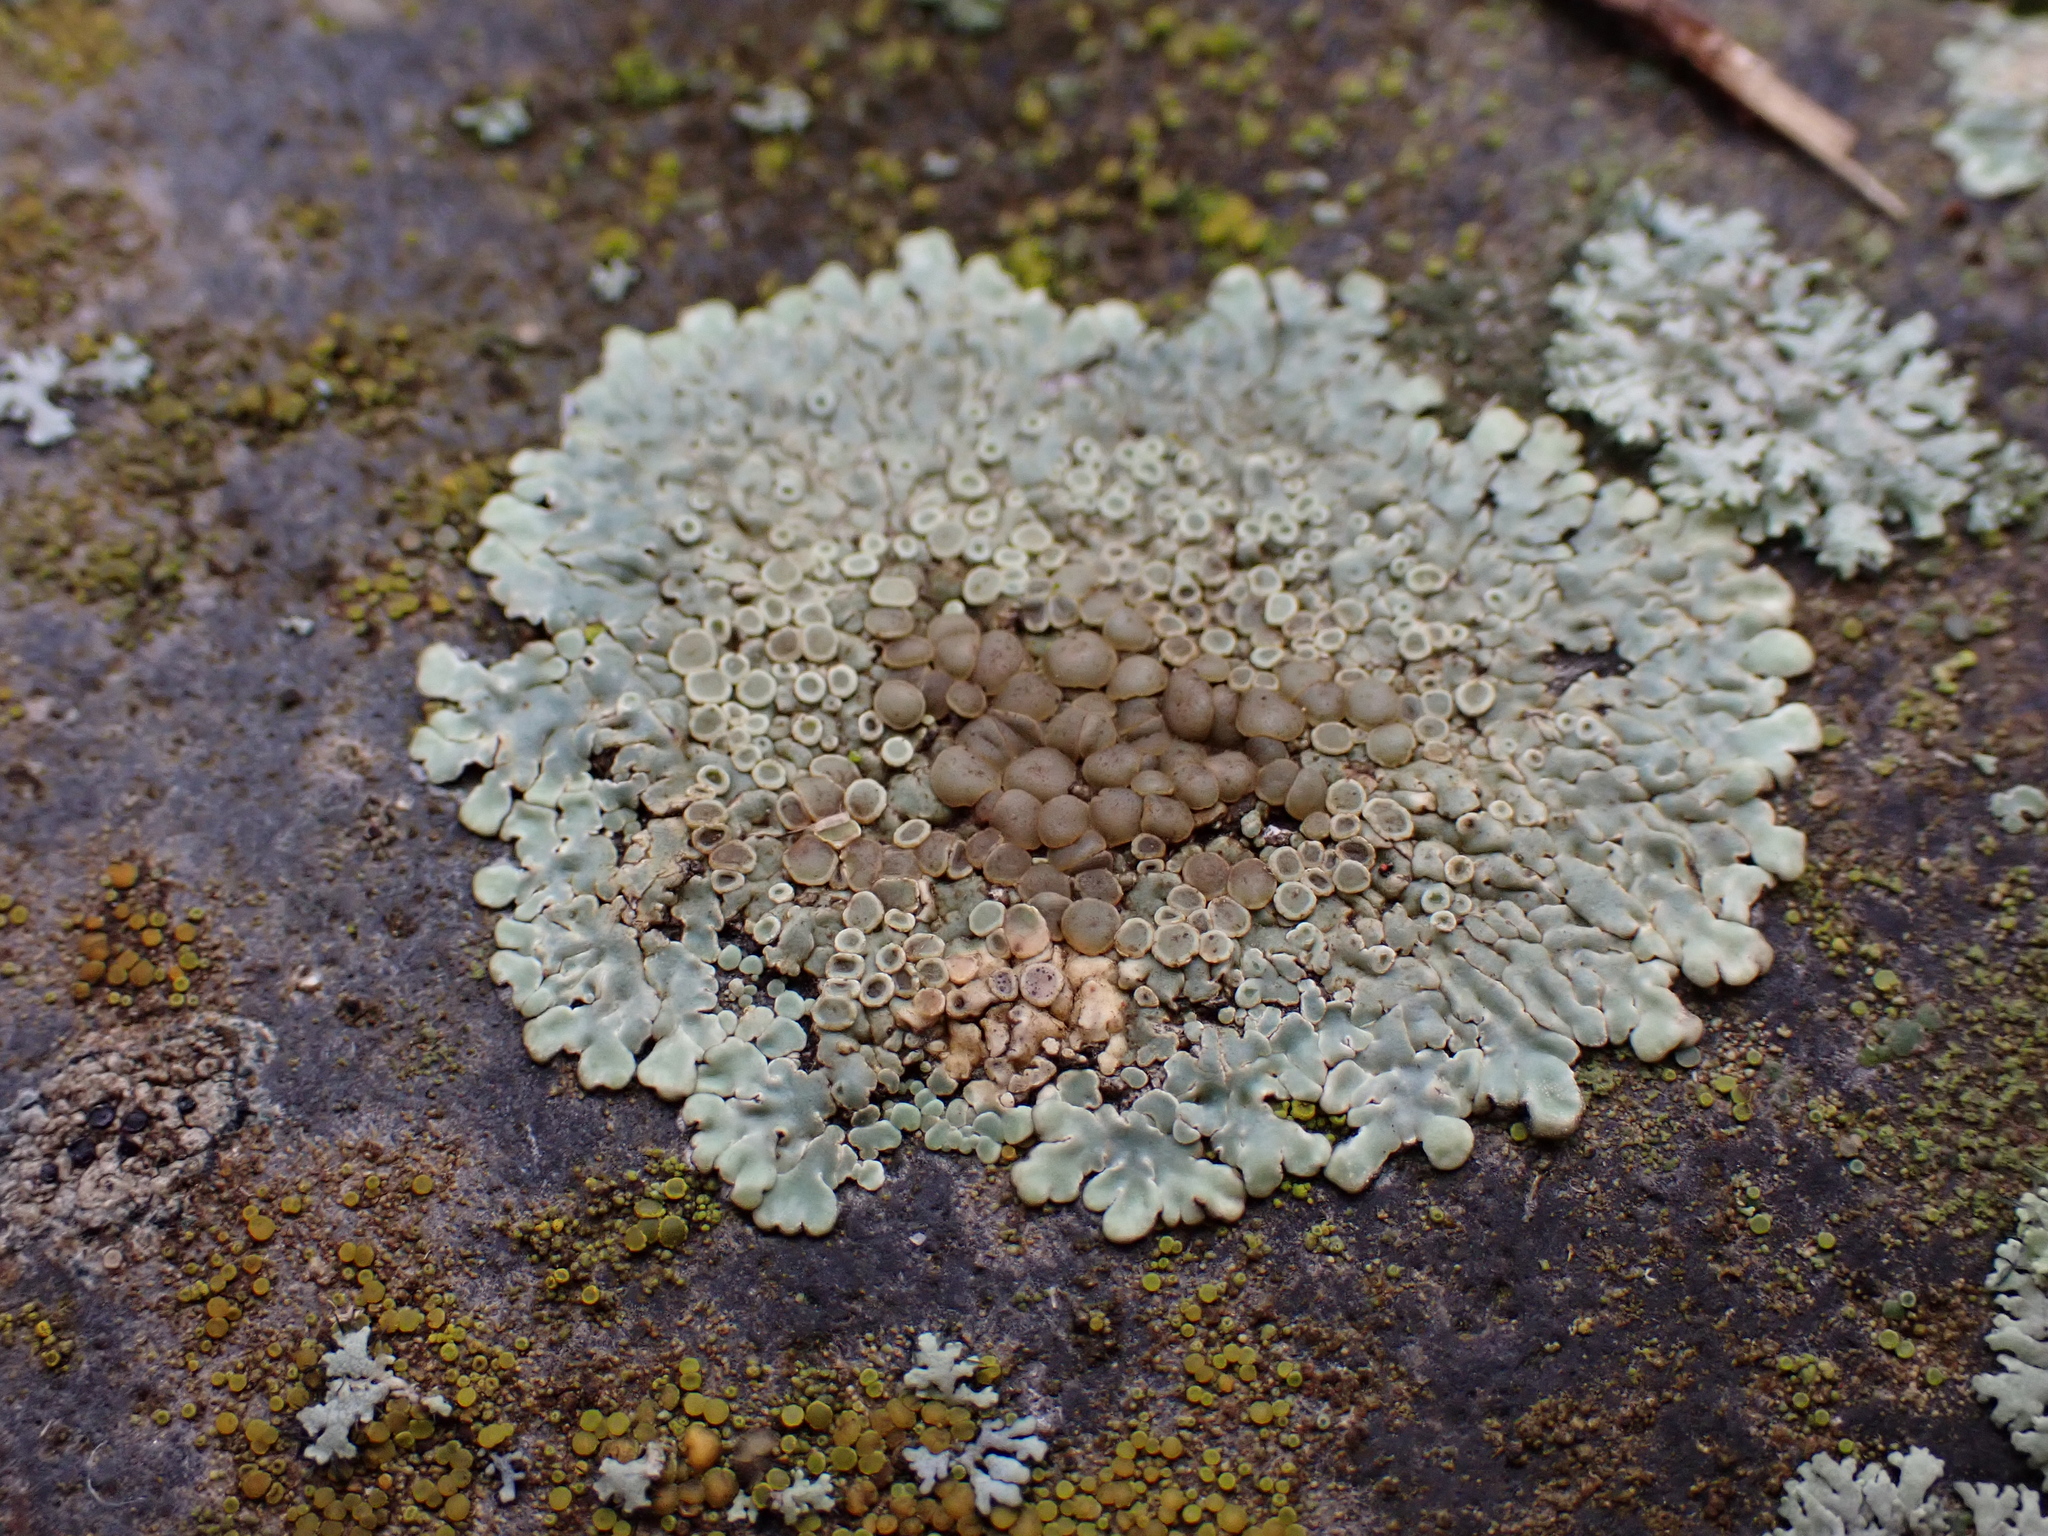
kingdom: Fungi
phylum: Ascomycota
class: Lecanoromycetes
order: Lecanorales
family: Lecanoraceae
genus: Protoparmeliopsis
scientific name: Protoparmeliopsis muralis
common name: Stonewall rim lichen
